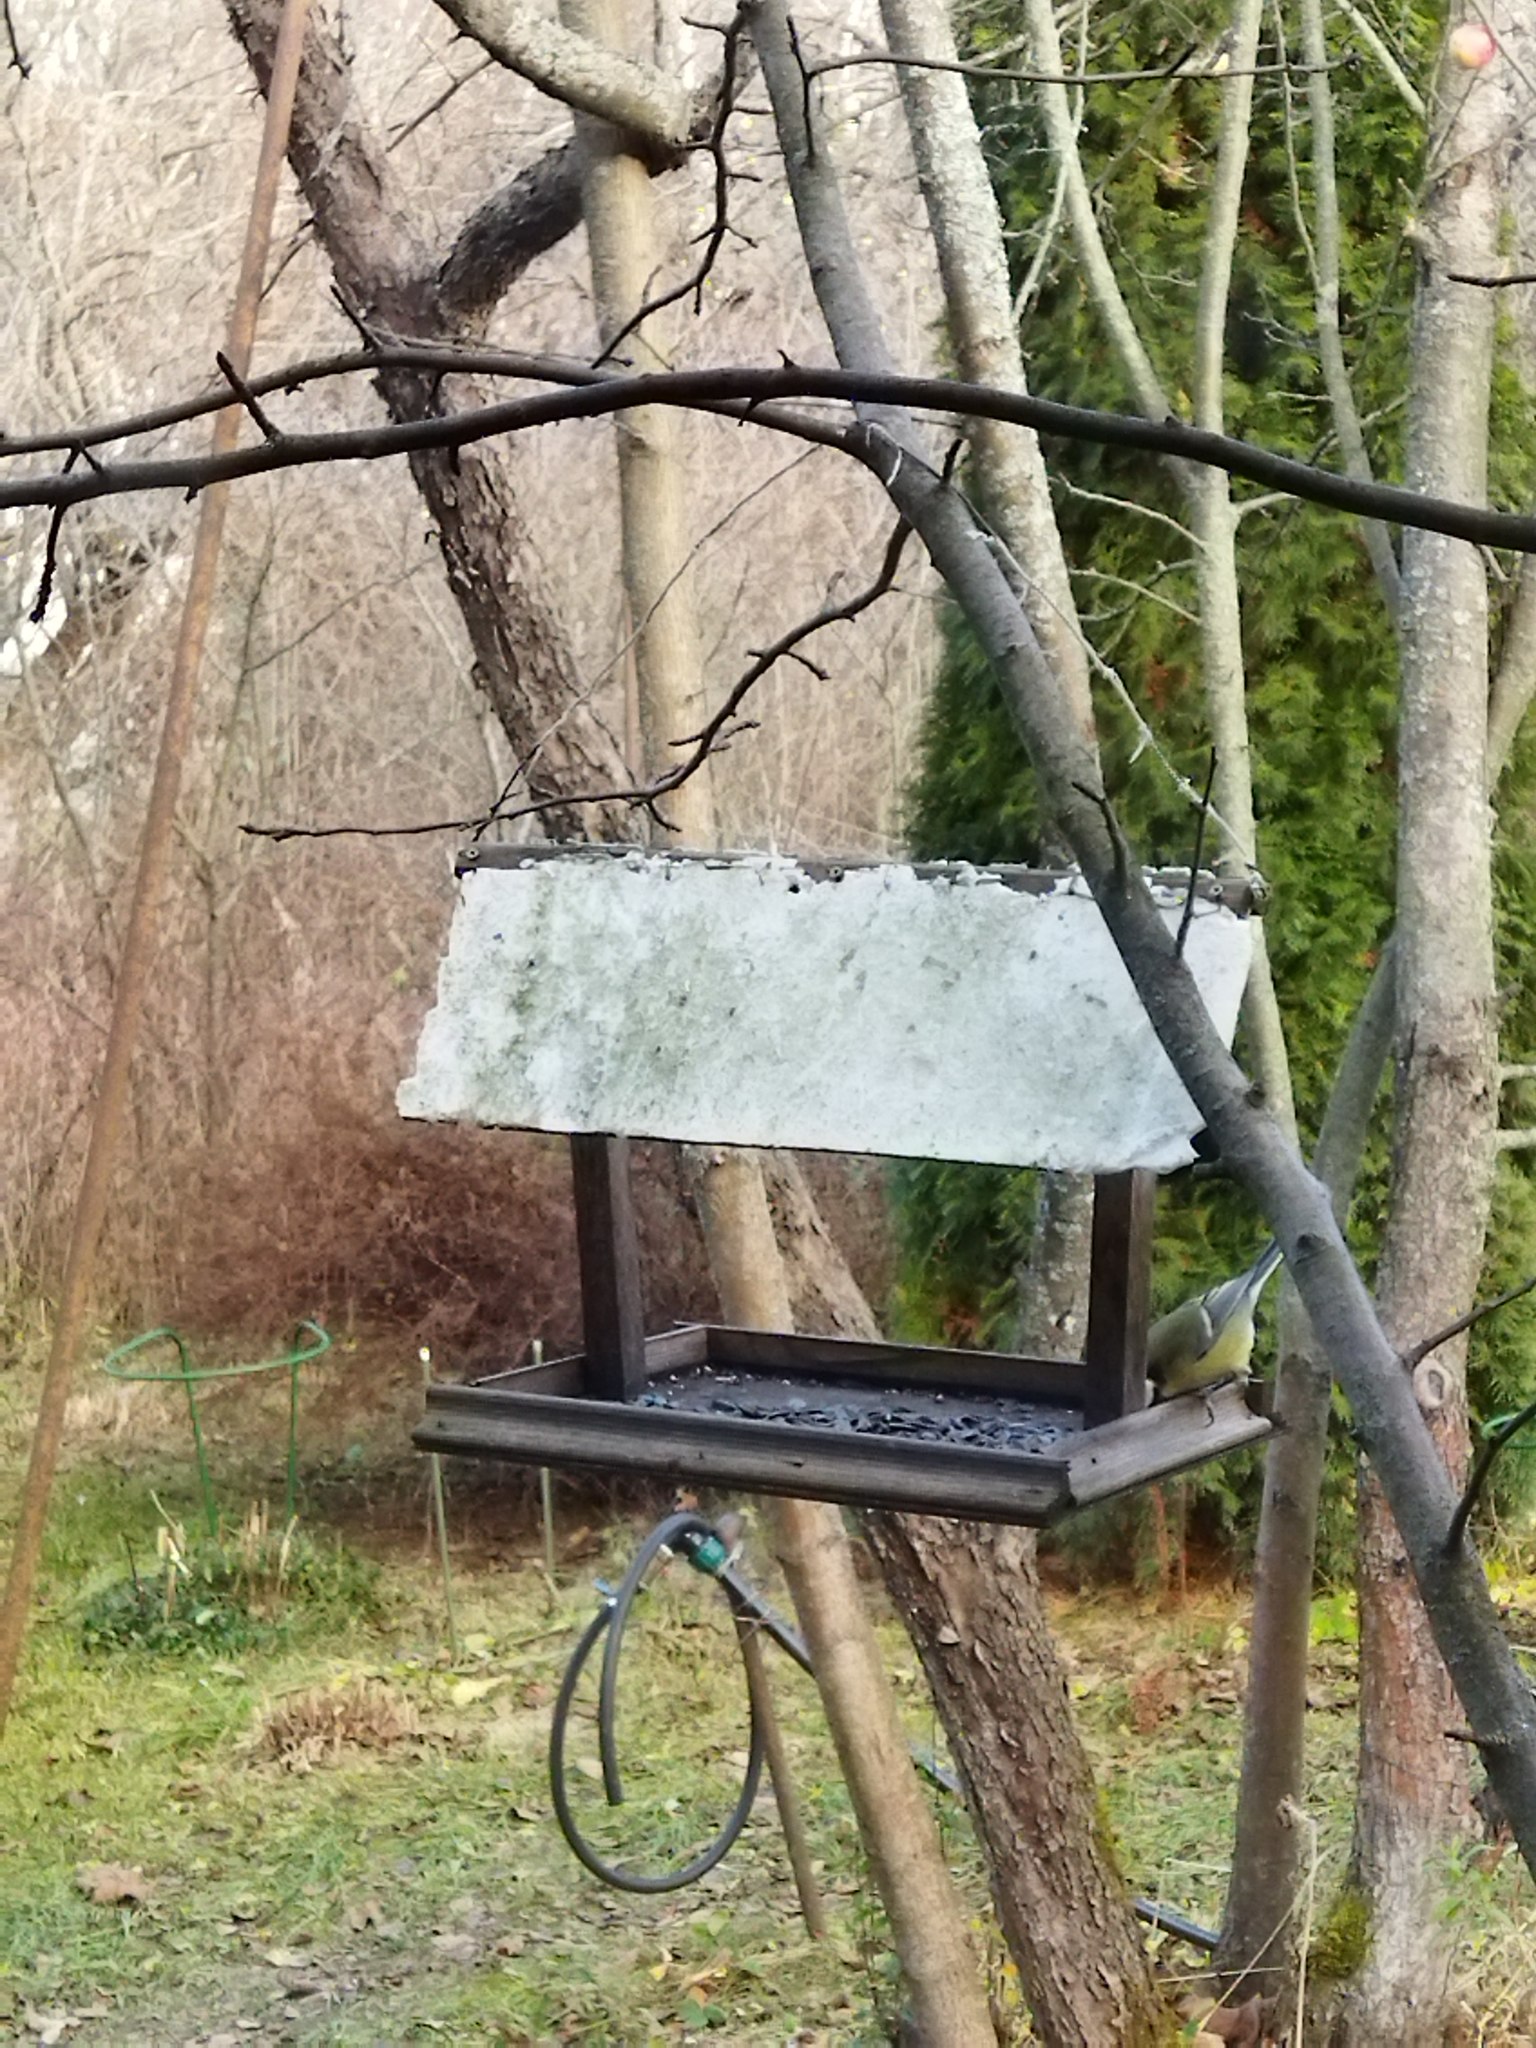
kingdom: Animalia
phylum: Chordata
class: Aves
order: Passeriformes
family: Paridae
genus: Parus
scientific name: Parus major
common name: Great tit
